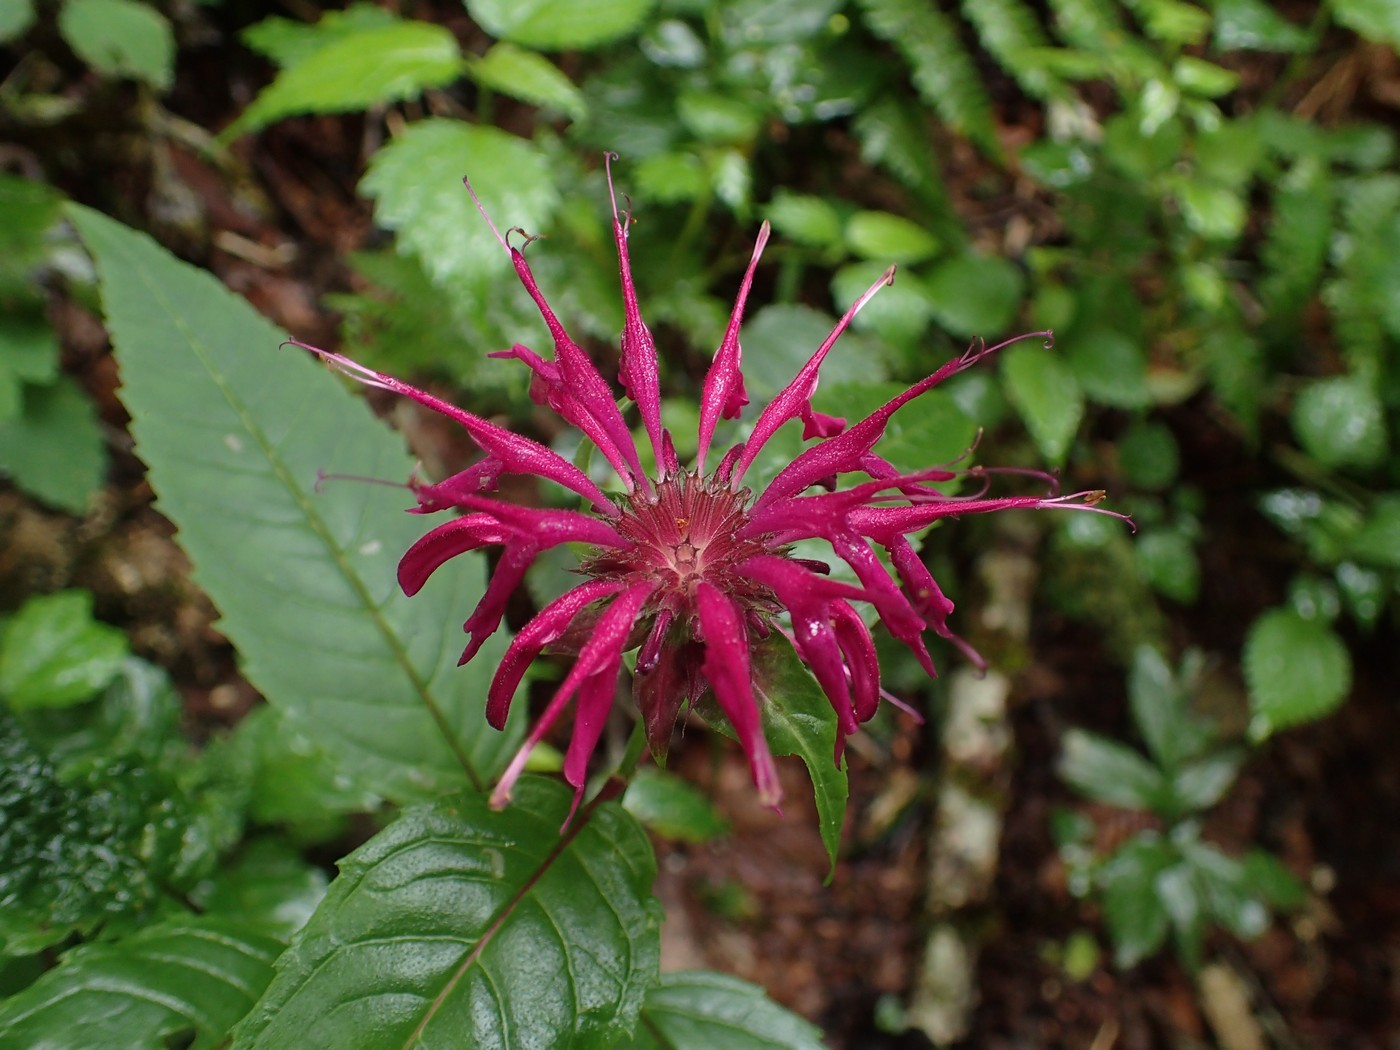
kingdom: Plantae
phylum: Tracheophyta
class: Magnoliopsida
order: Lamiales
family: Lamiaceae
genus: Monarda
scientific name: Monarda media
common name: Purple bergamot
